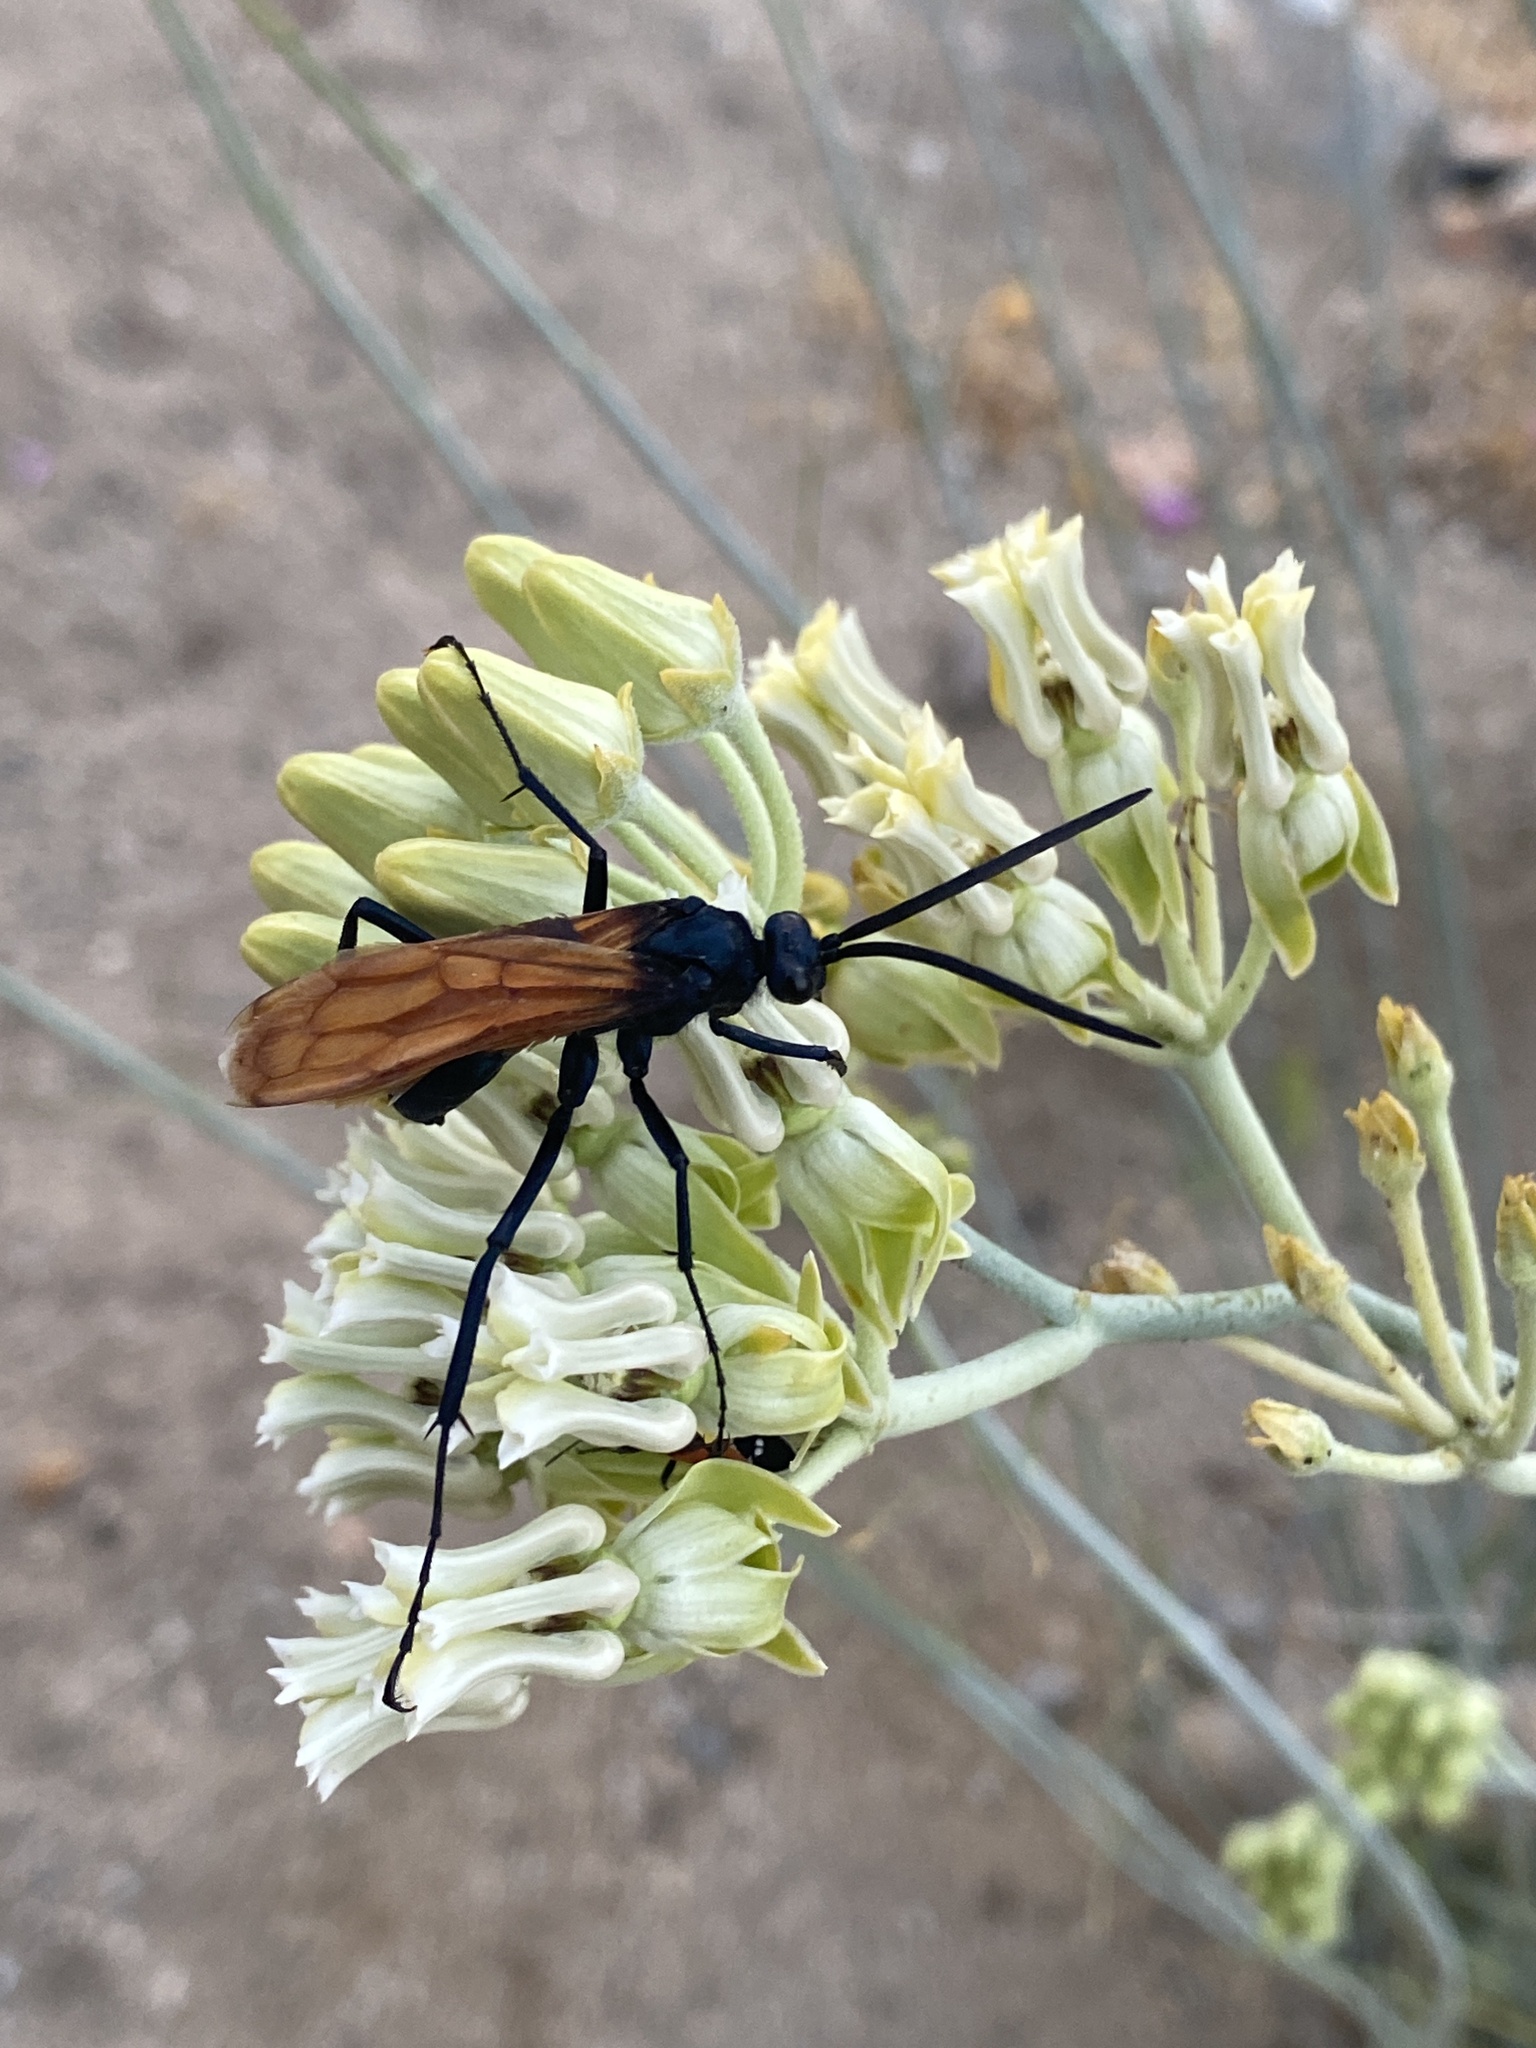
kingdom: Animalia
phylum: Arthropoda
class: Insecta
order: Hymenoptera
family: Pompilidae
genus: Pepsis
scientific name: Pepsis thisbe
